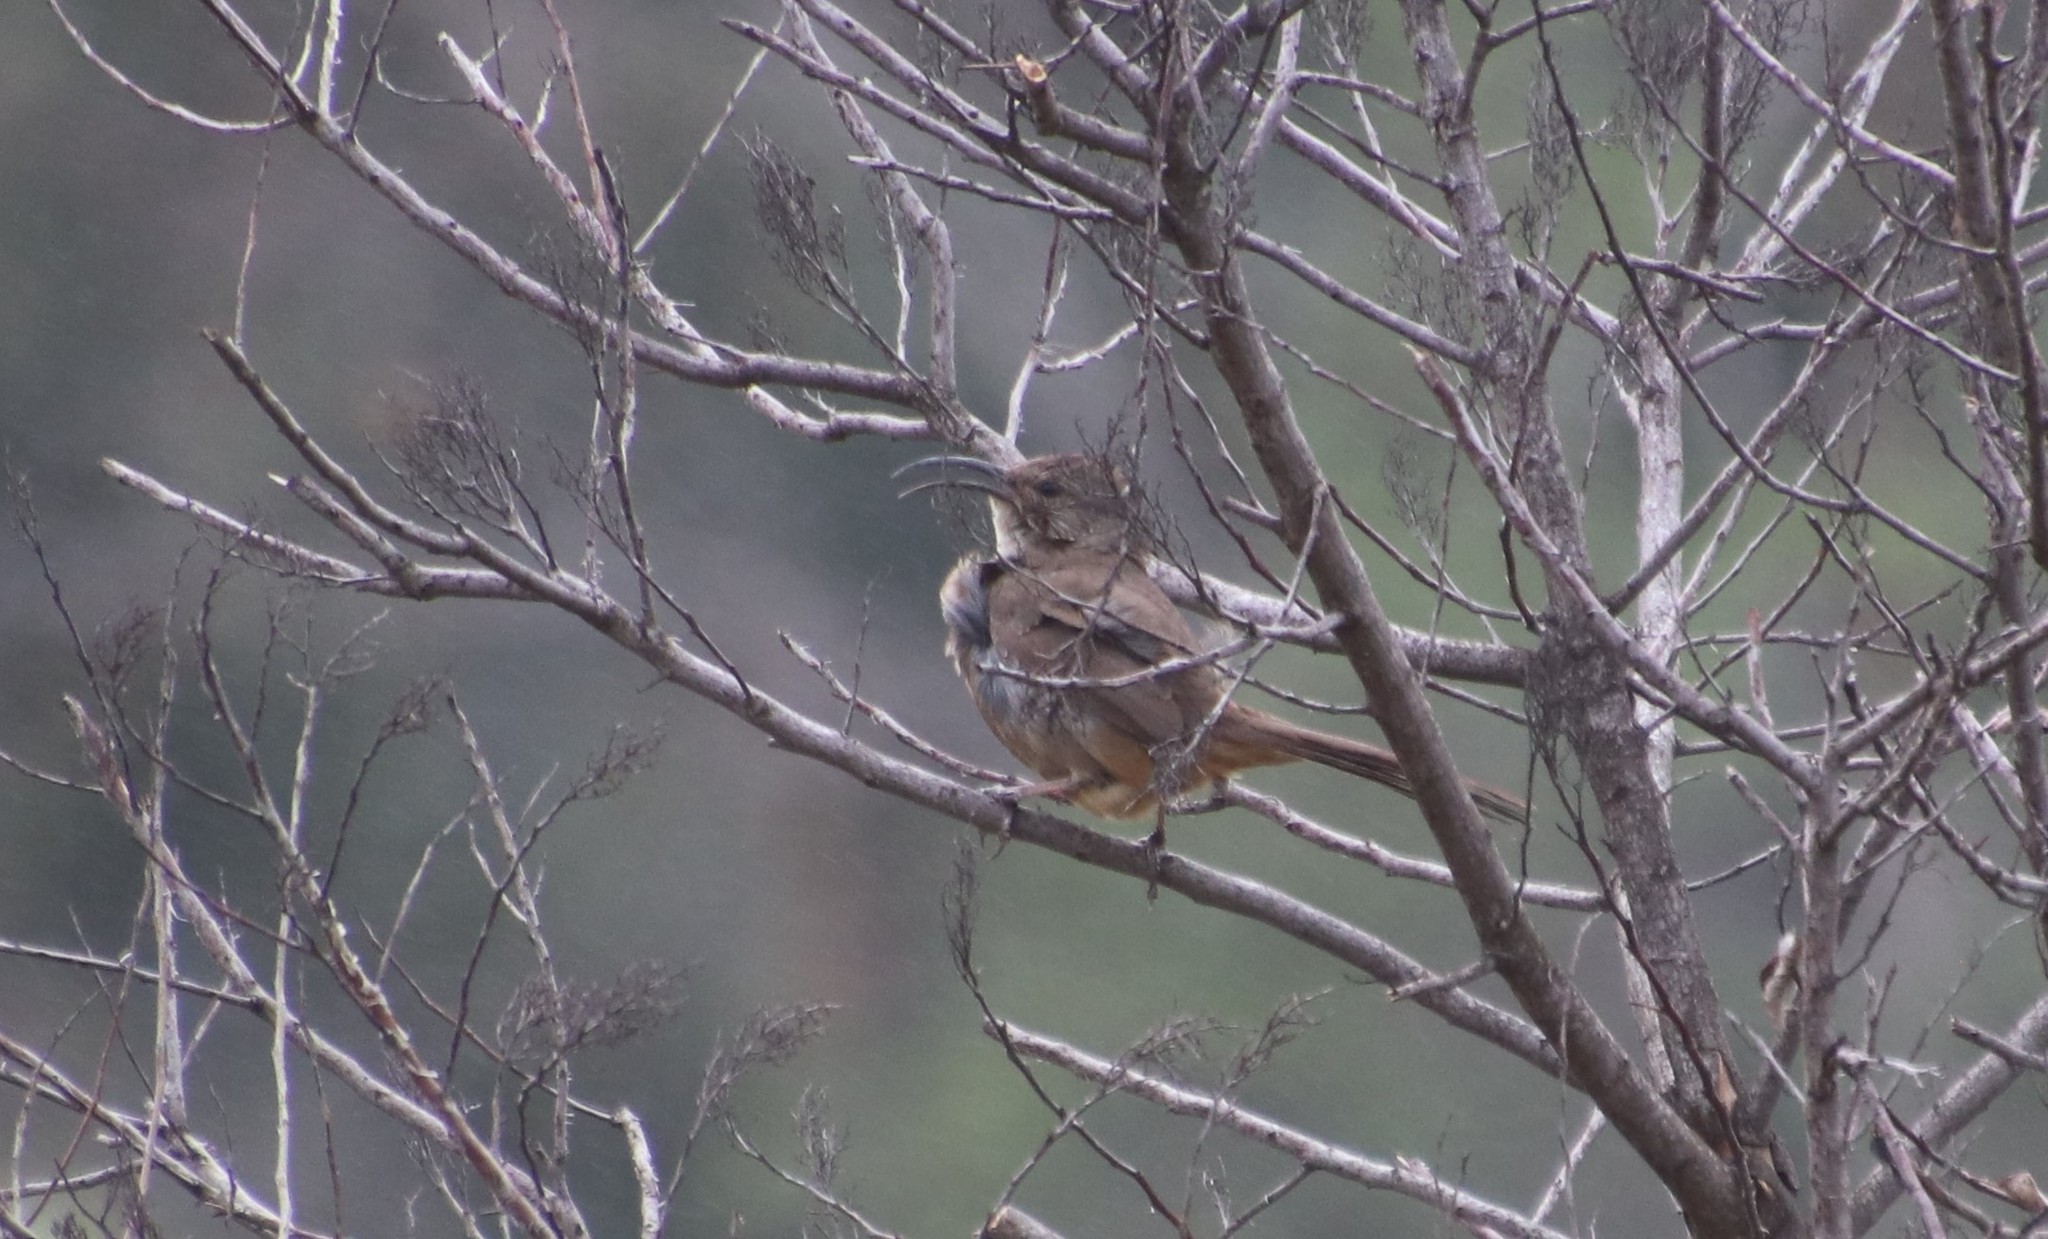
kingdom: Animalia
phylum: Chordata
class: Aves
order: Passeriformes
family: Mimidae
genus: Toxostoma
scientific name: Toxostoma redivivum
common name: California thrasher
